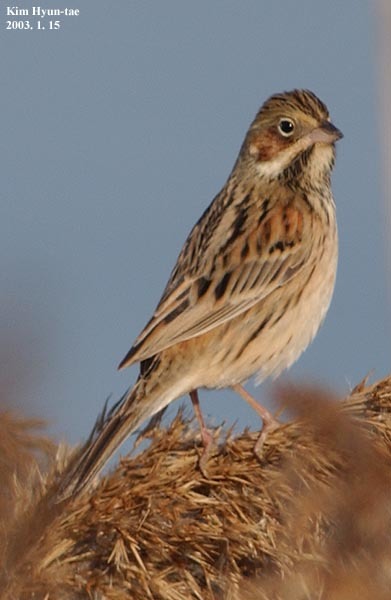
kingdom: Animalia
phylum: Chordata
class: Aves
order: Passeriformes
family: Emberizidae
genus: Emberiza
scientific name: Emberiza fucata
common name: Chestnut-eared bunting
